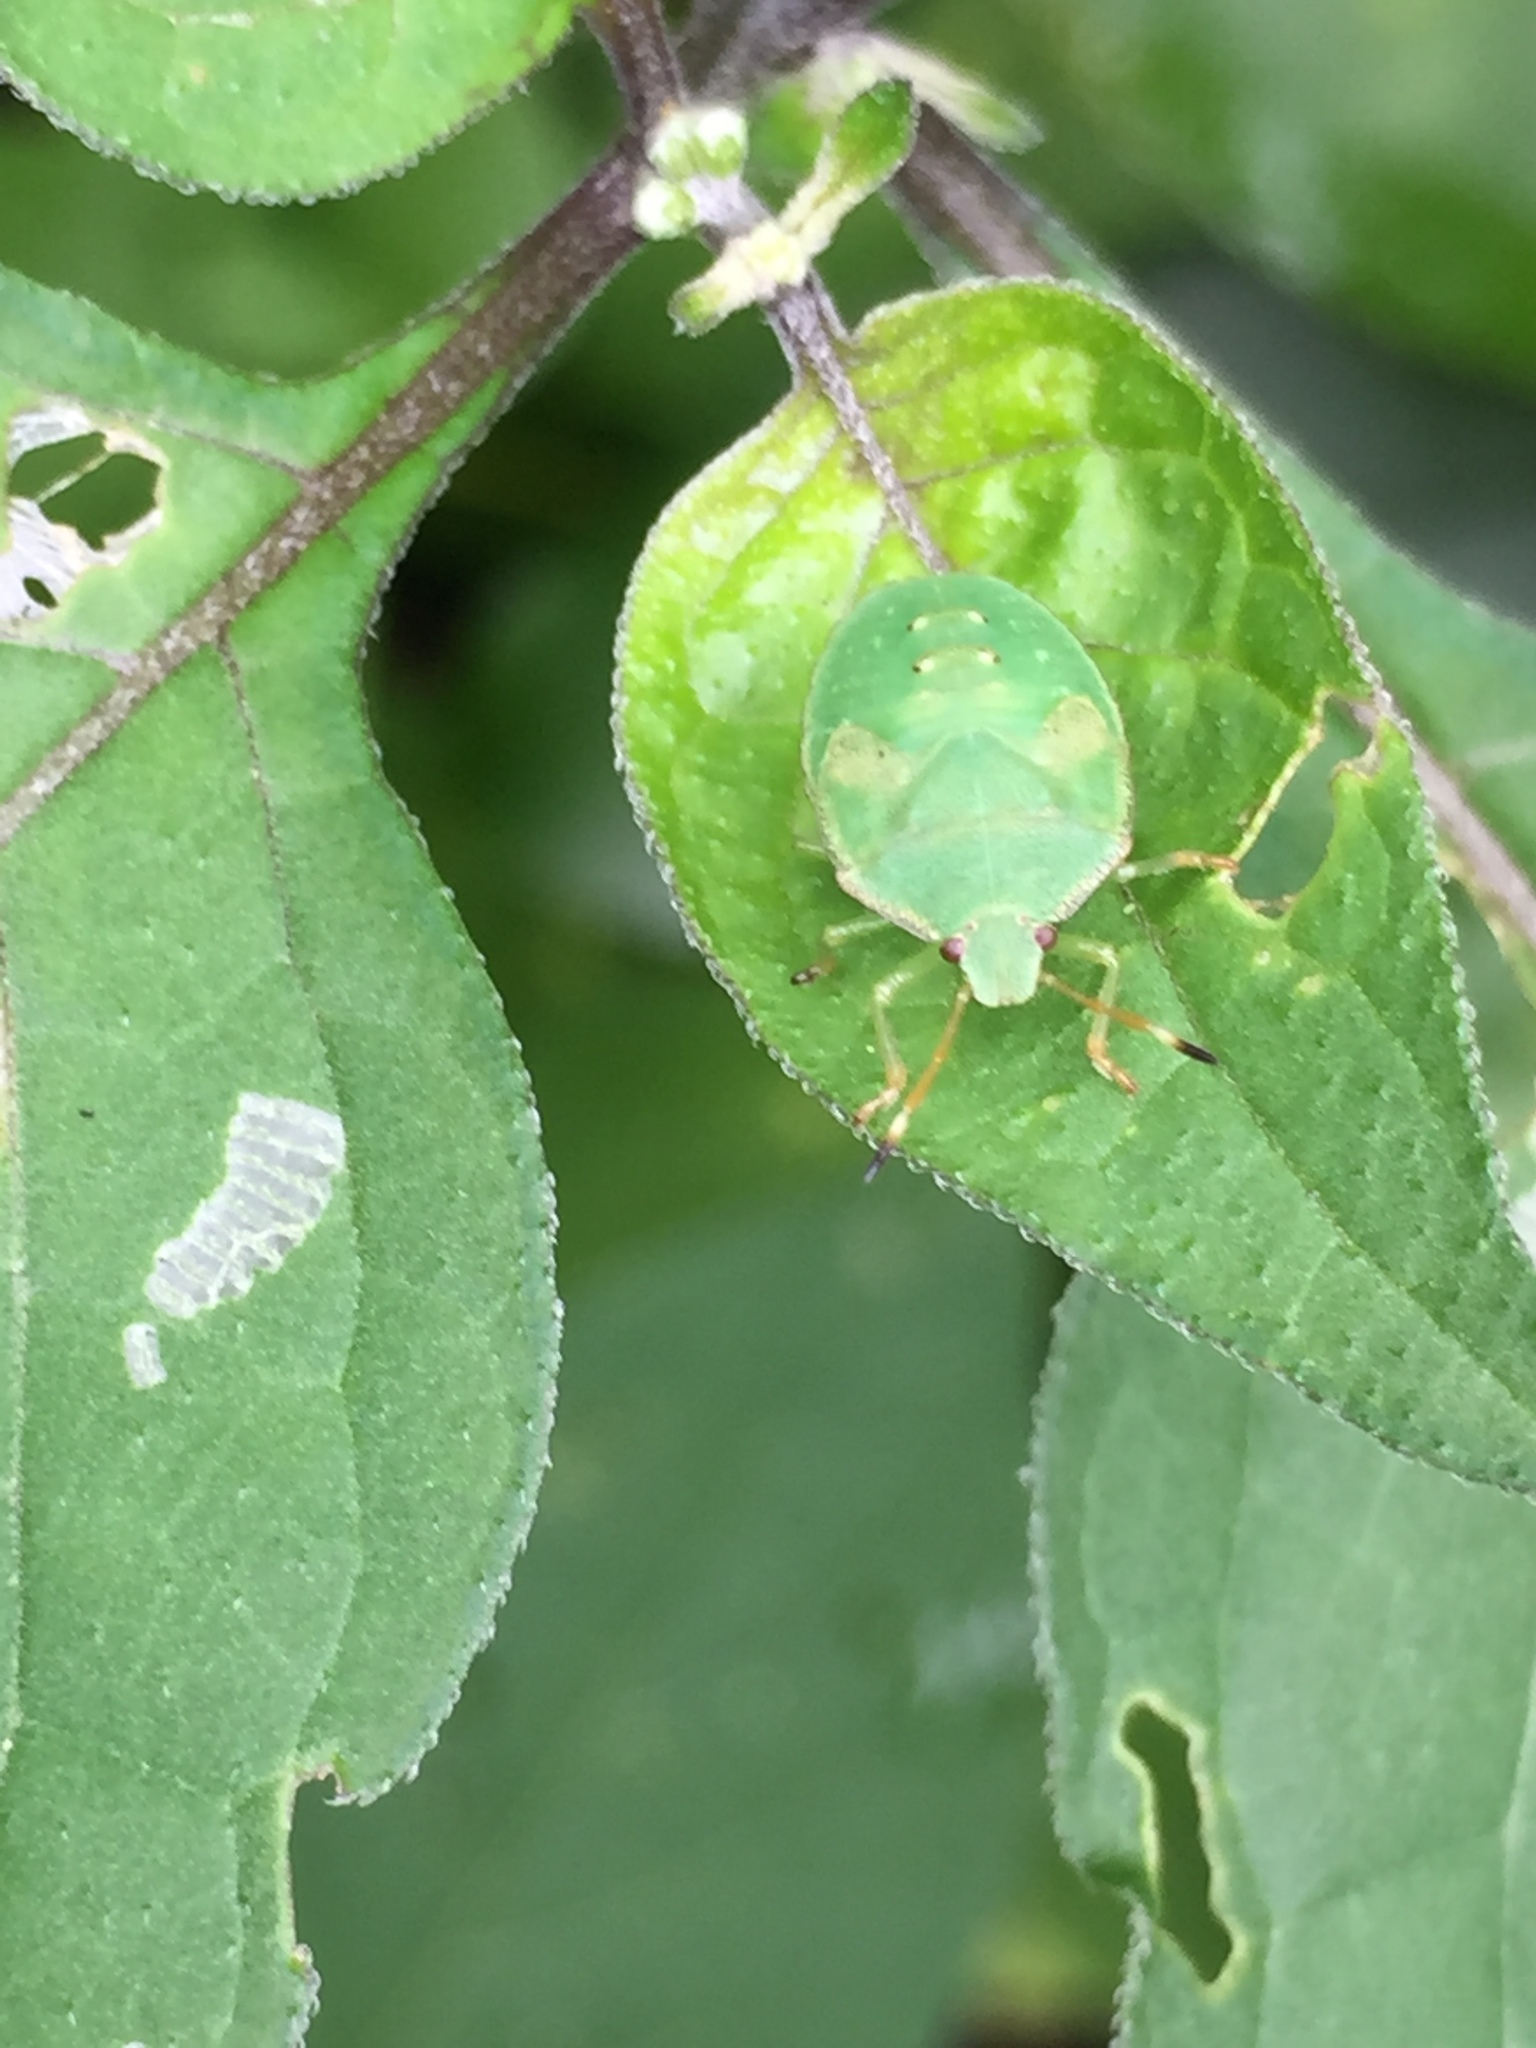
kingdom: Animalia
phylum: Arthropoda
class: Insecta
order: Hemiptera
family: Pentatomidae
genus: Cuspicona
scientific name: Cuspicona simplex
